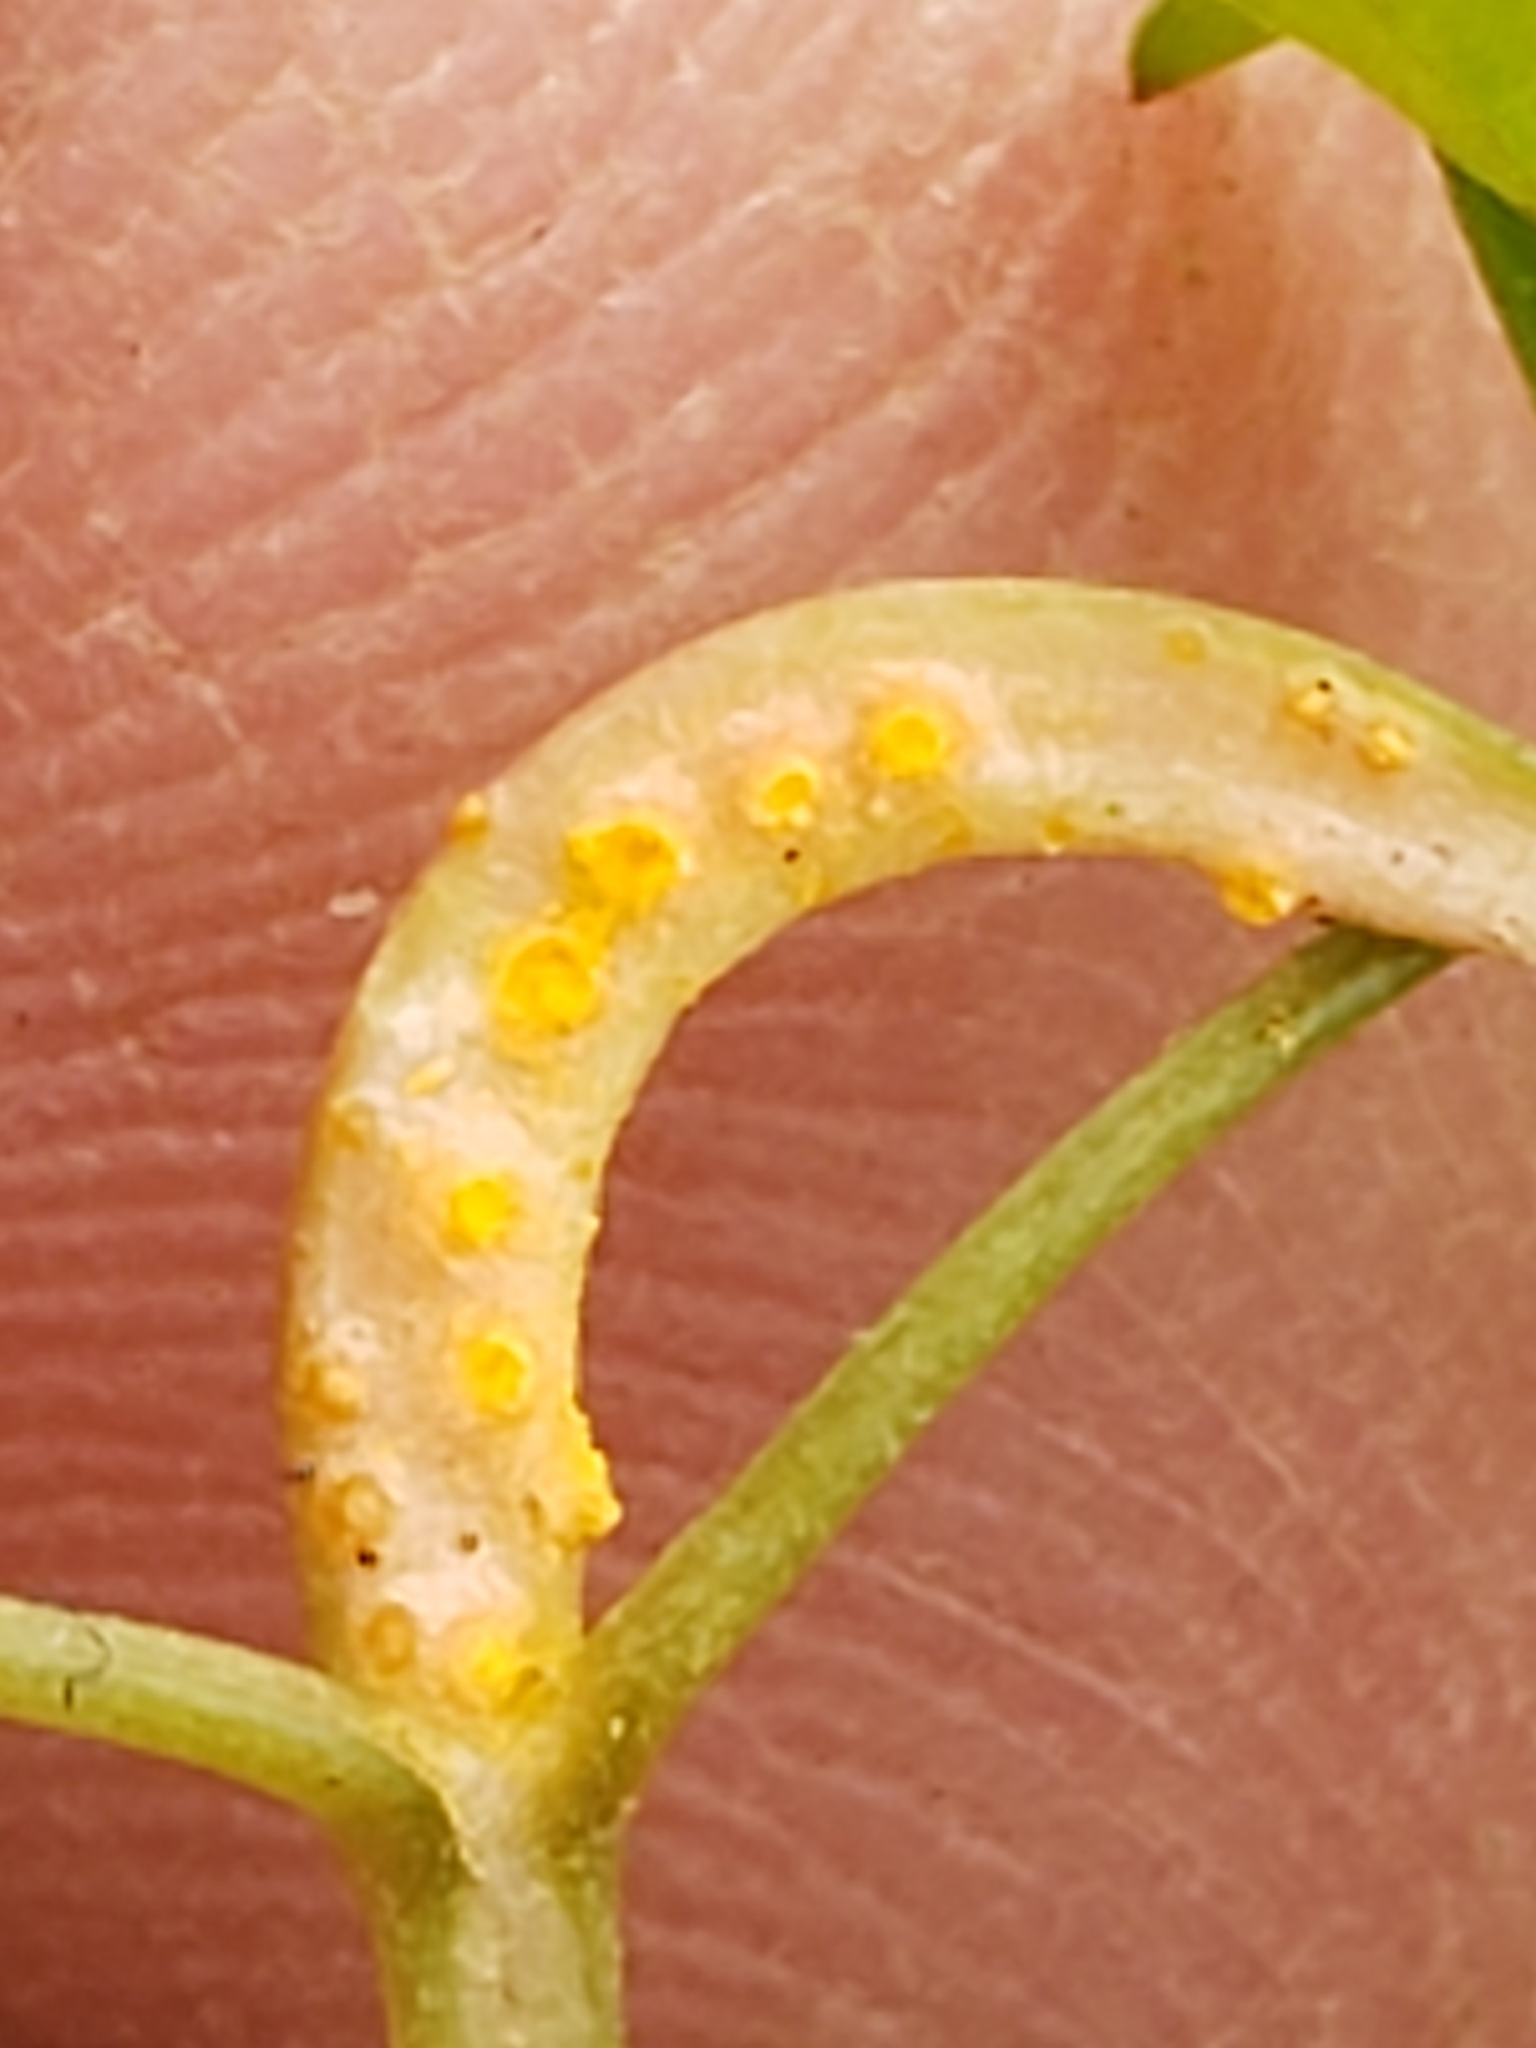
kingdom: Fungi
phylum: Basidiomycota
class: Pucciniomycetes
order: Pucciniales
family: Pucciniaceae
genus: Puccinia
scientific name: Puccinia mariae-wilsoniae
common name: Spring beauty rust
